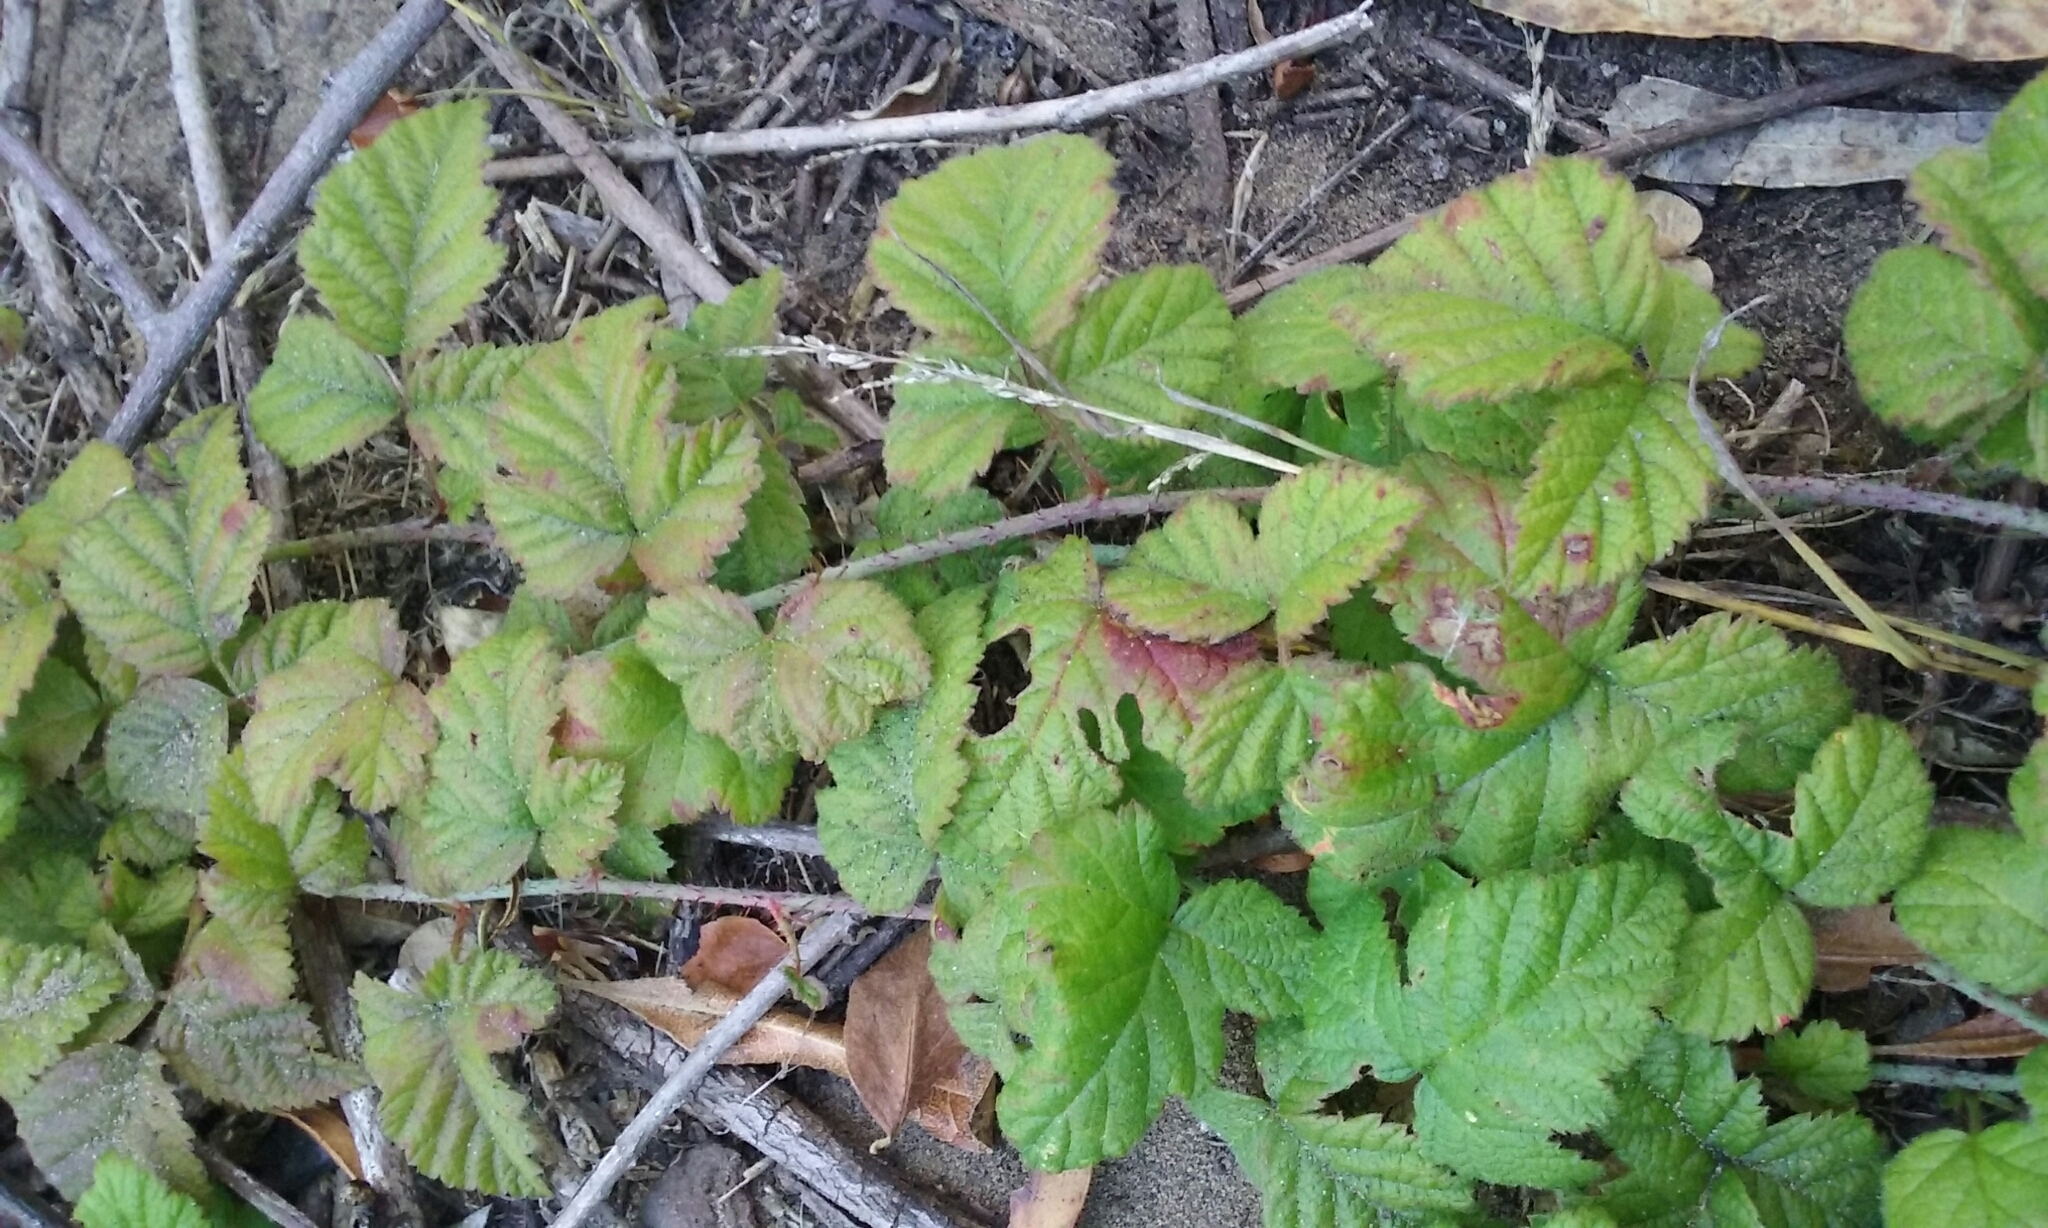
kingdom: Plantae
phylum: Tracheophyta
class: Magnoliopsida
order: Rosales
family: Rosaceae
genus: Rubus
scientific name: Rubus ursinus
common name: Pacific blackberry
